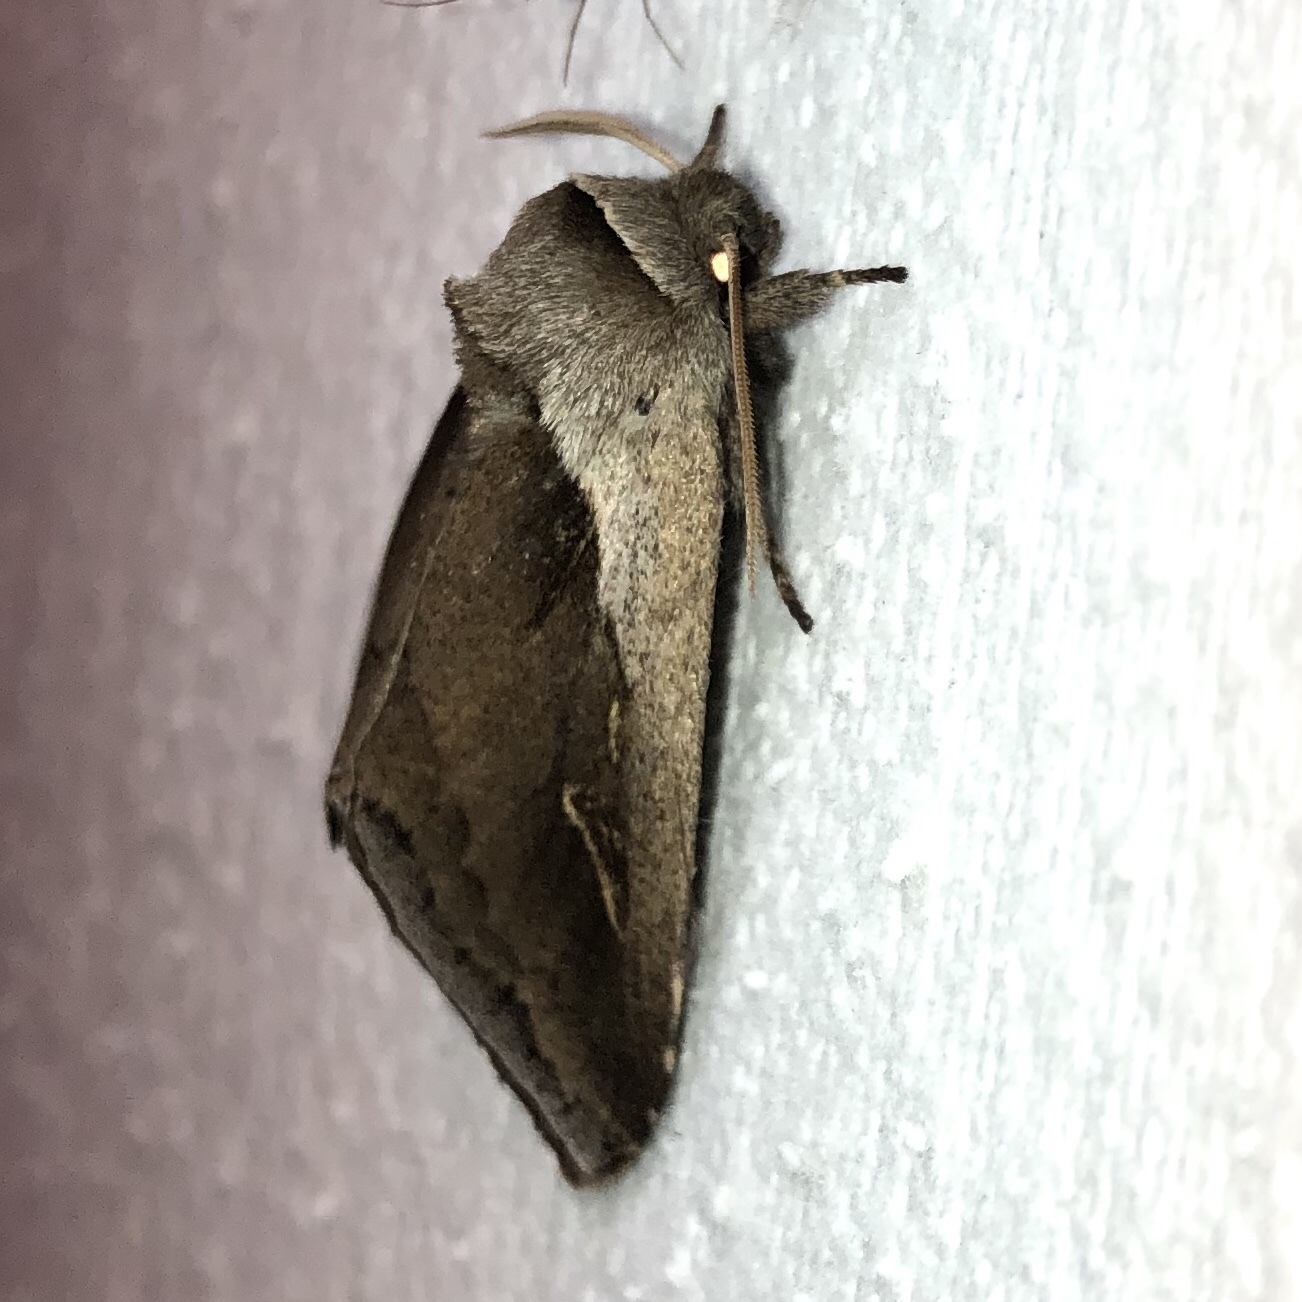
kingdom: Animalia
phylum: Arthropoda
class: Insecta
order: Lepidoptera
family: Noctuidae
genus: Bellura
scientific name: Bellura obliqua
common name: Cattail borer moth
